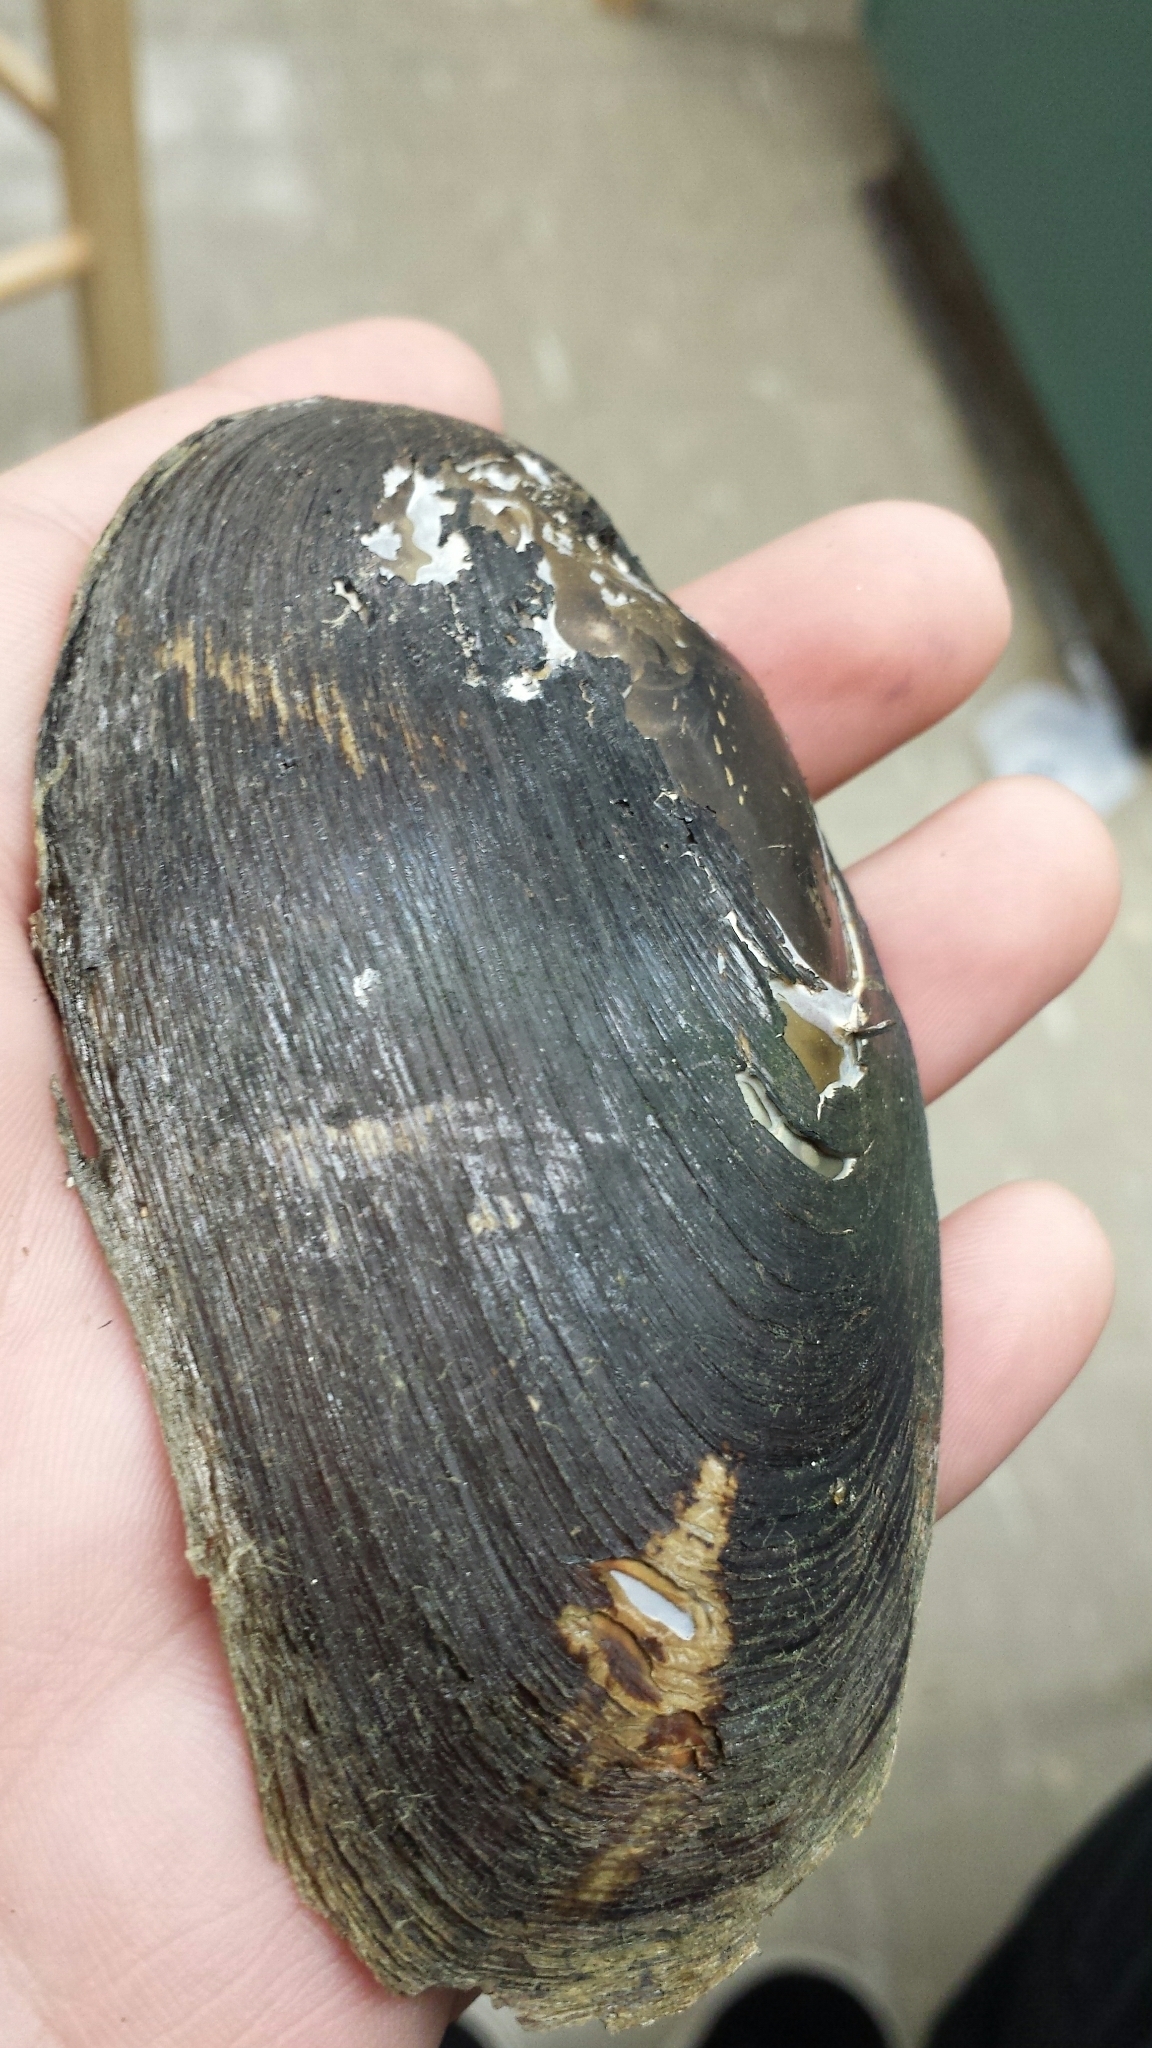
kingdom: Animalia
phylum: Mollusca
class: Bivalvia
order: Unionida
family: Unionidae
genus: Elliptio
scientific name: Elliptio complanata
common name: Eastern elliptio
